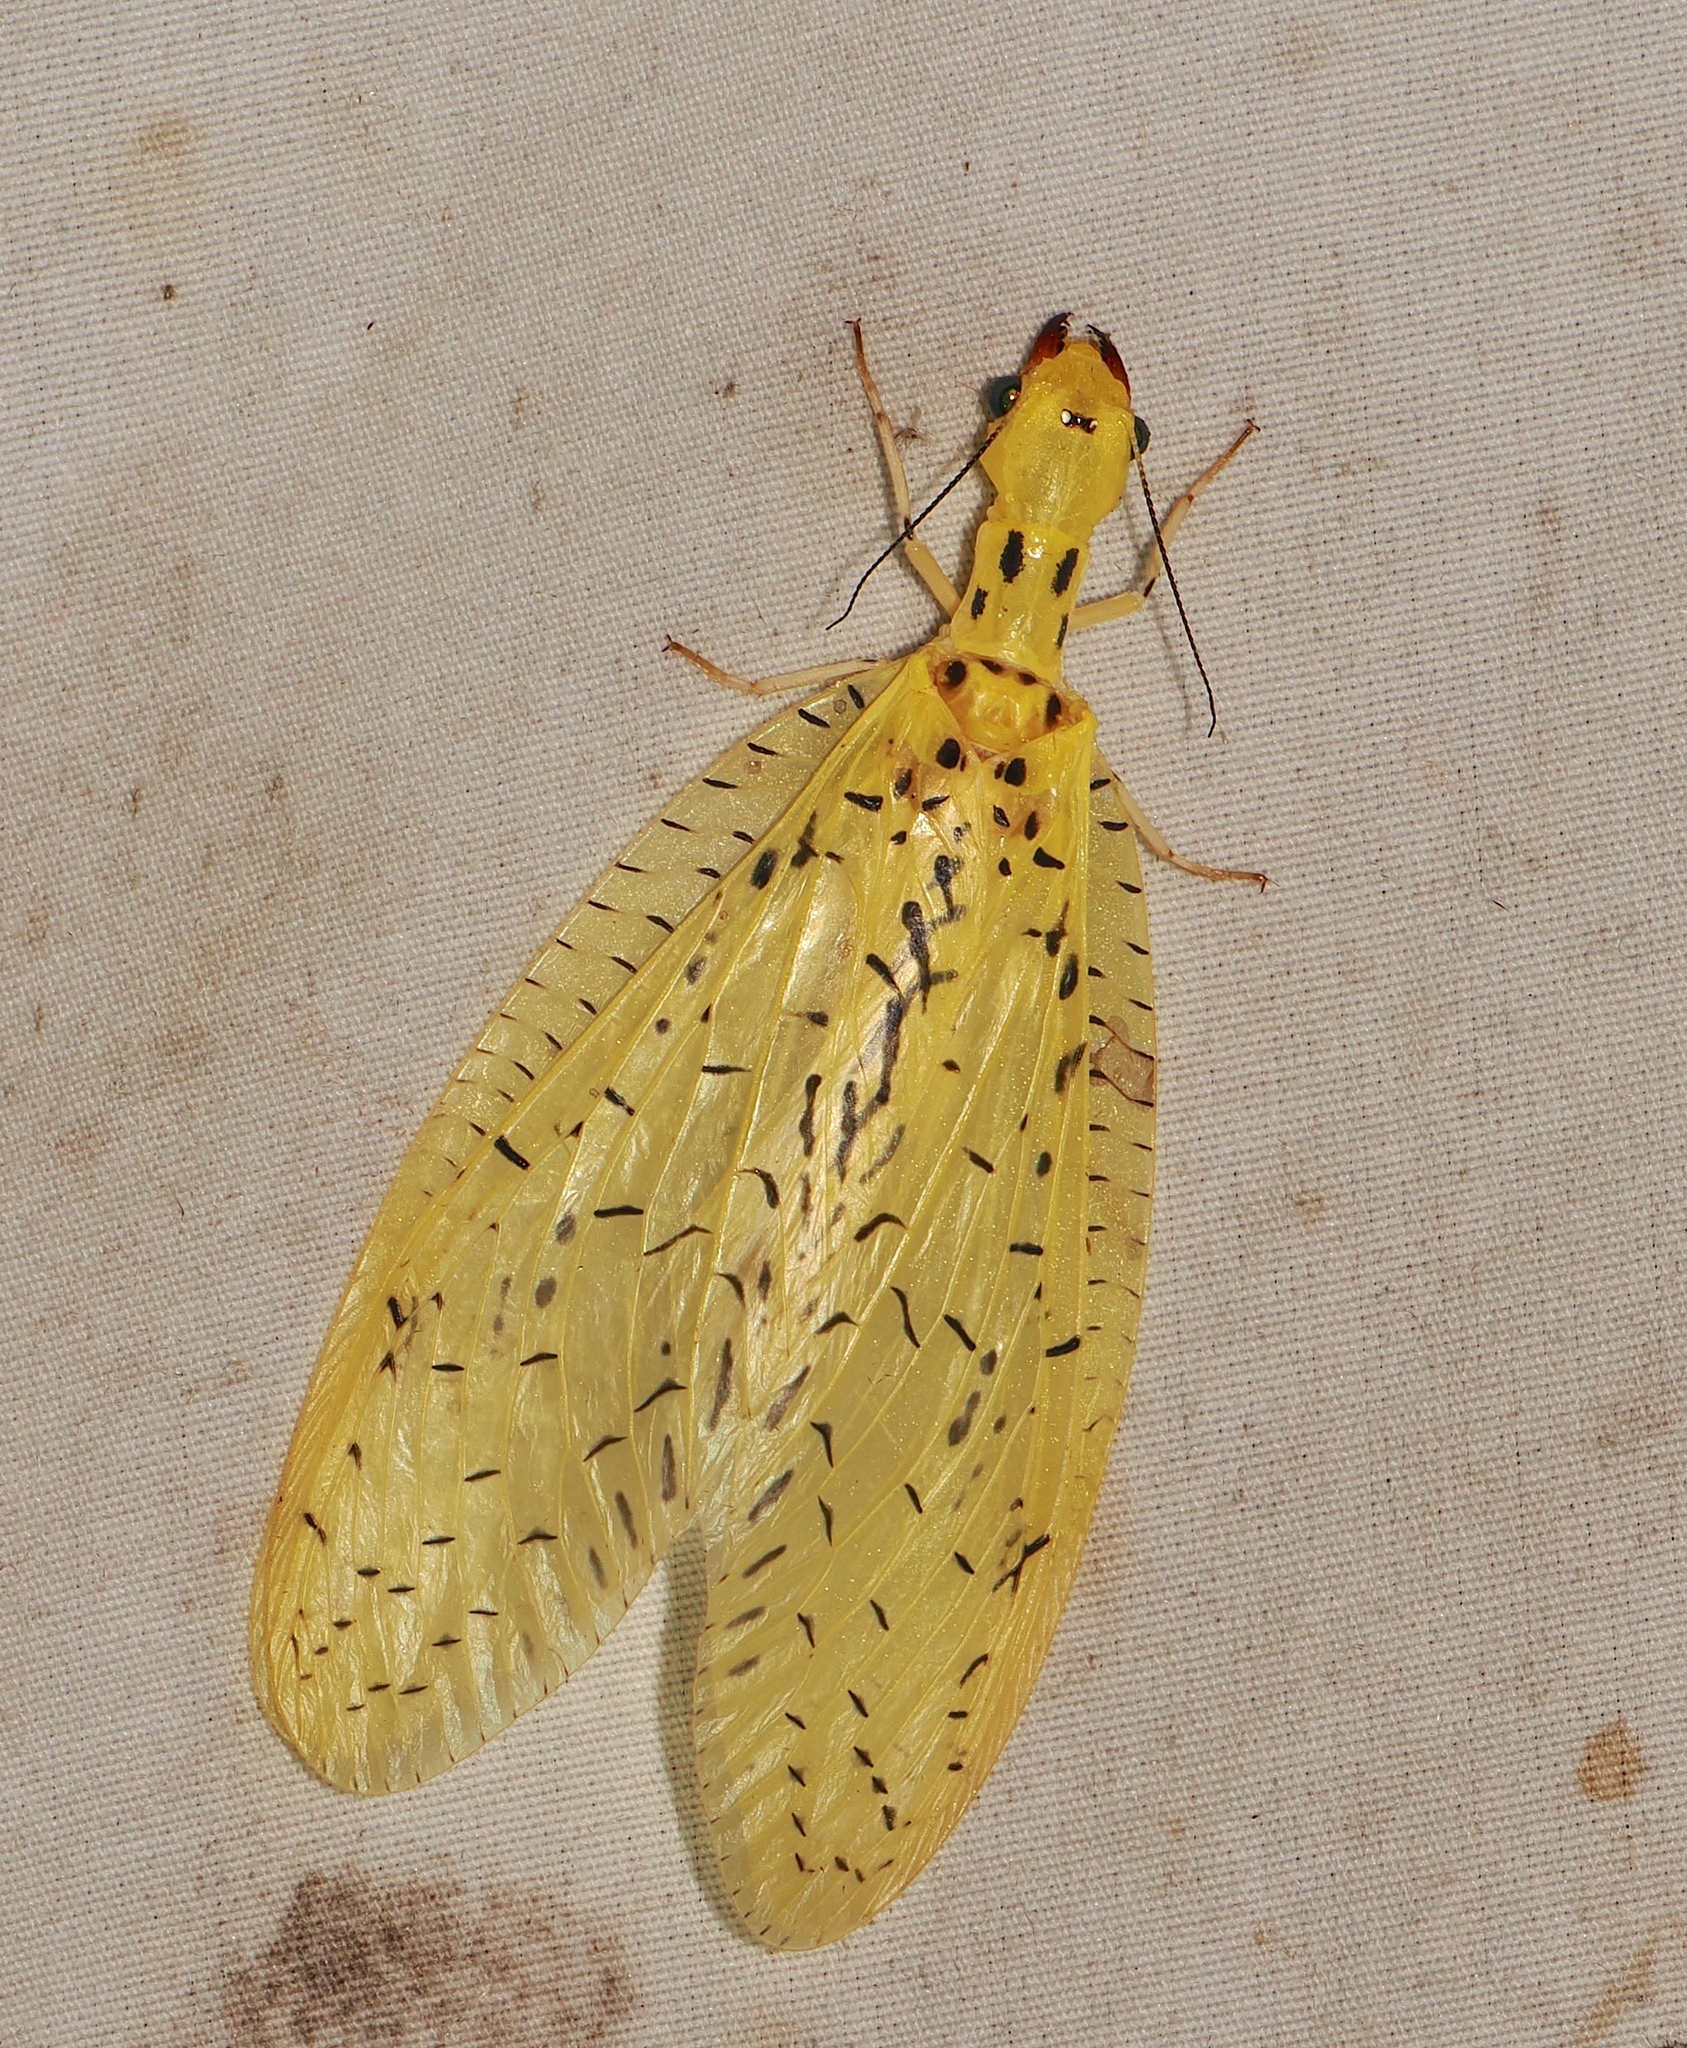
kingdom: Animalia
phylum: Arthropoda
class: Insecta
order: Megaloptera
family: Corydalidae
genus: Chloronia
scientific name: Chloronia corripiens
